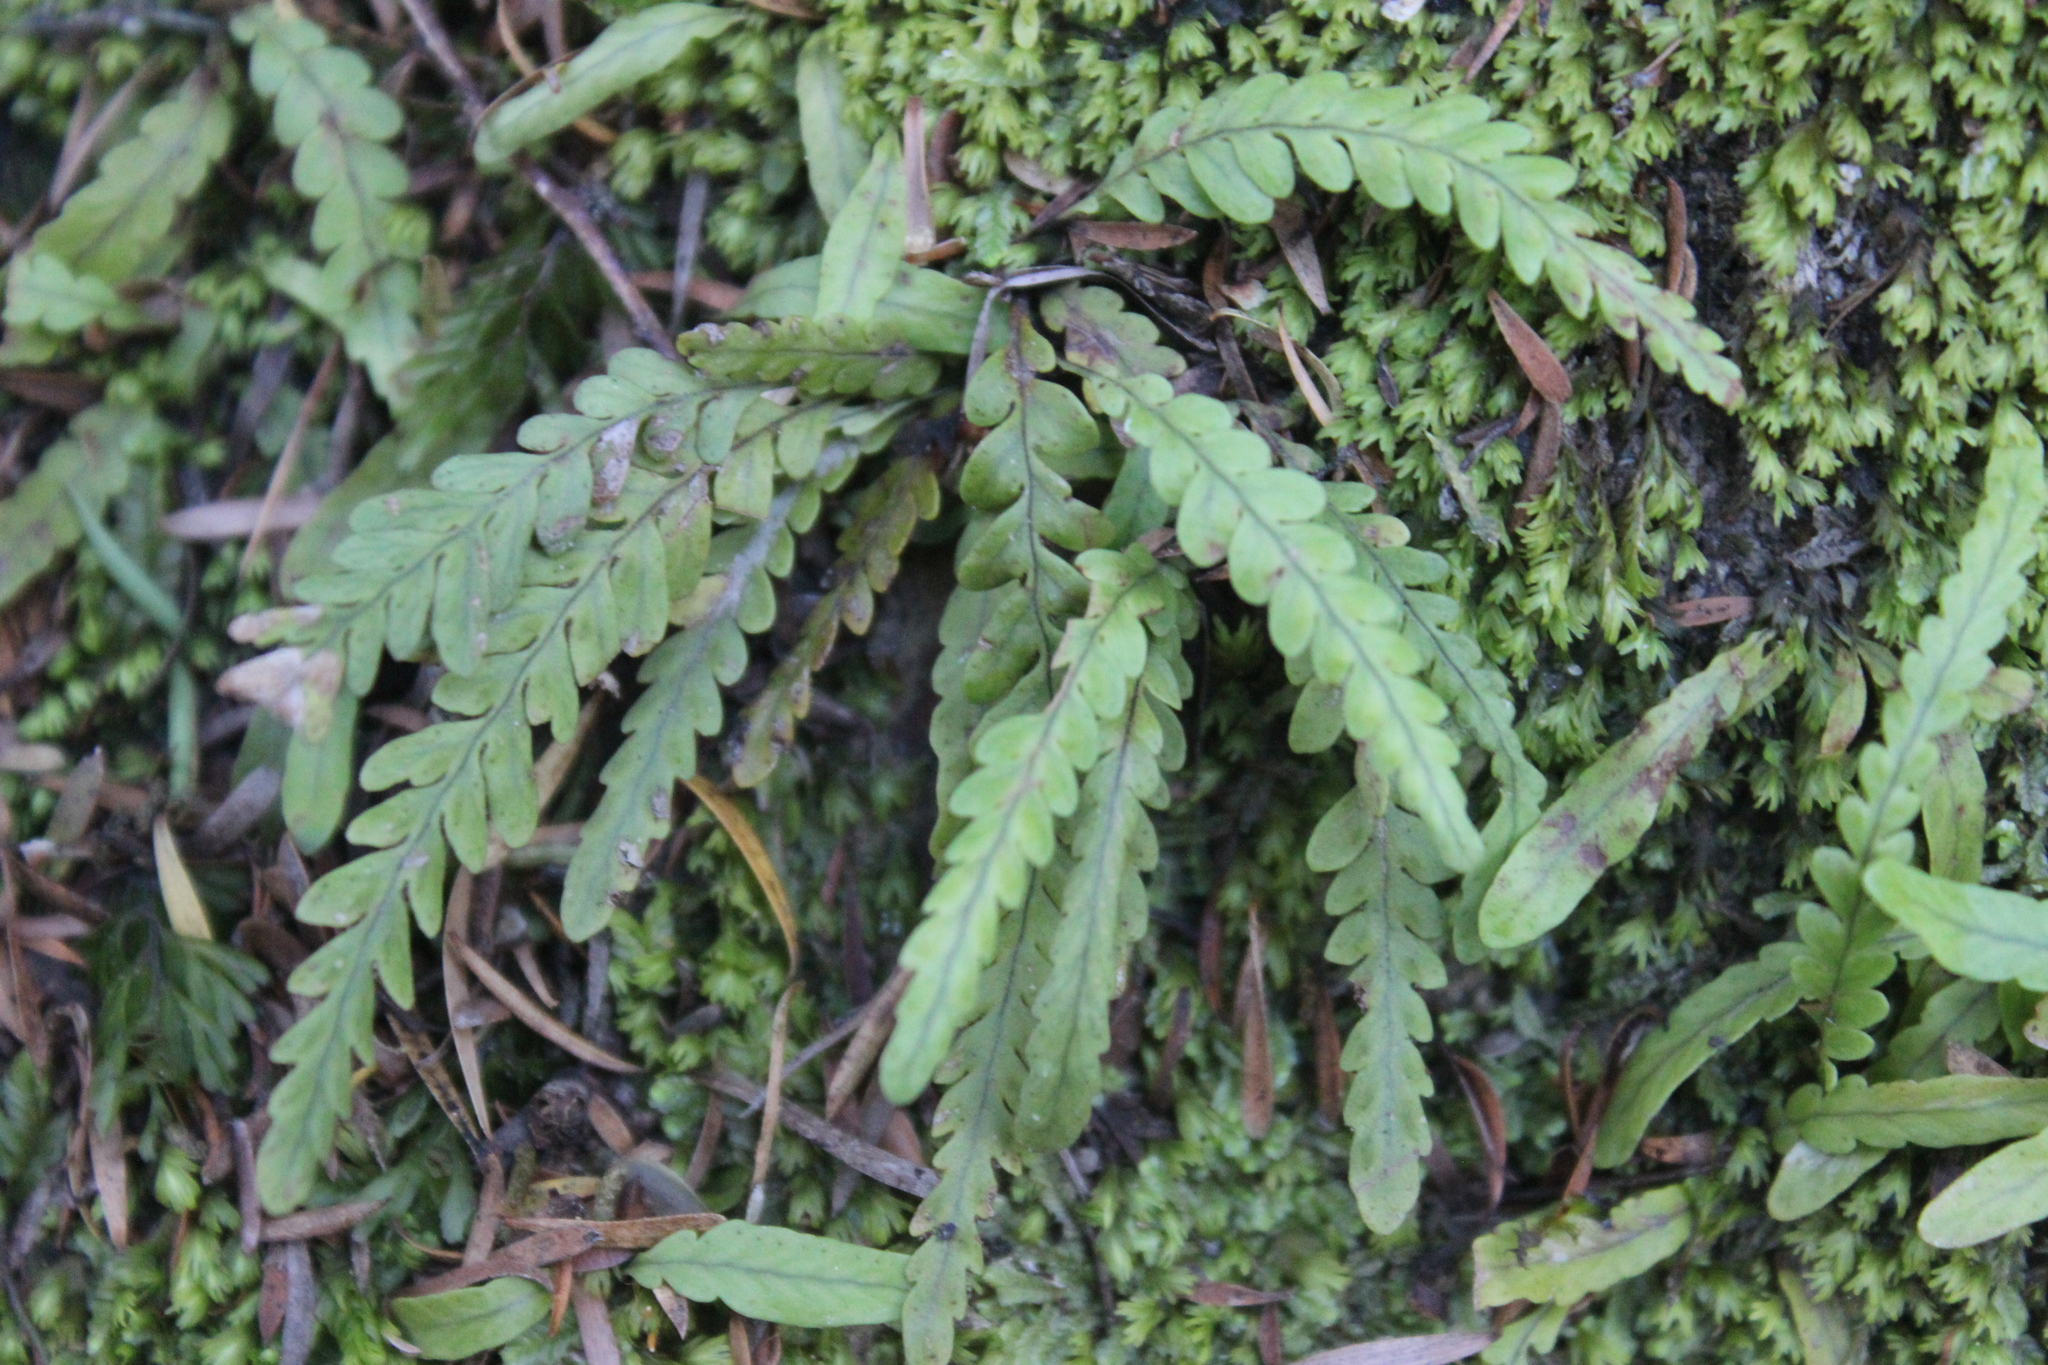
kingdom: Plantae
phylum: Tracheophyta
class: Polypodiopsida
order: Polypodiales
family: Polypodiaceae
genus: Notogrammitis
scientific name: Notogrammitis heterophylla
